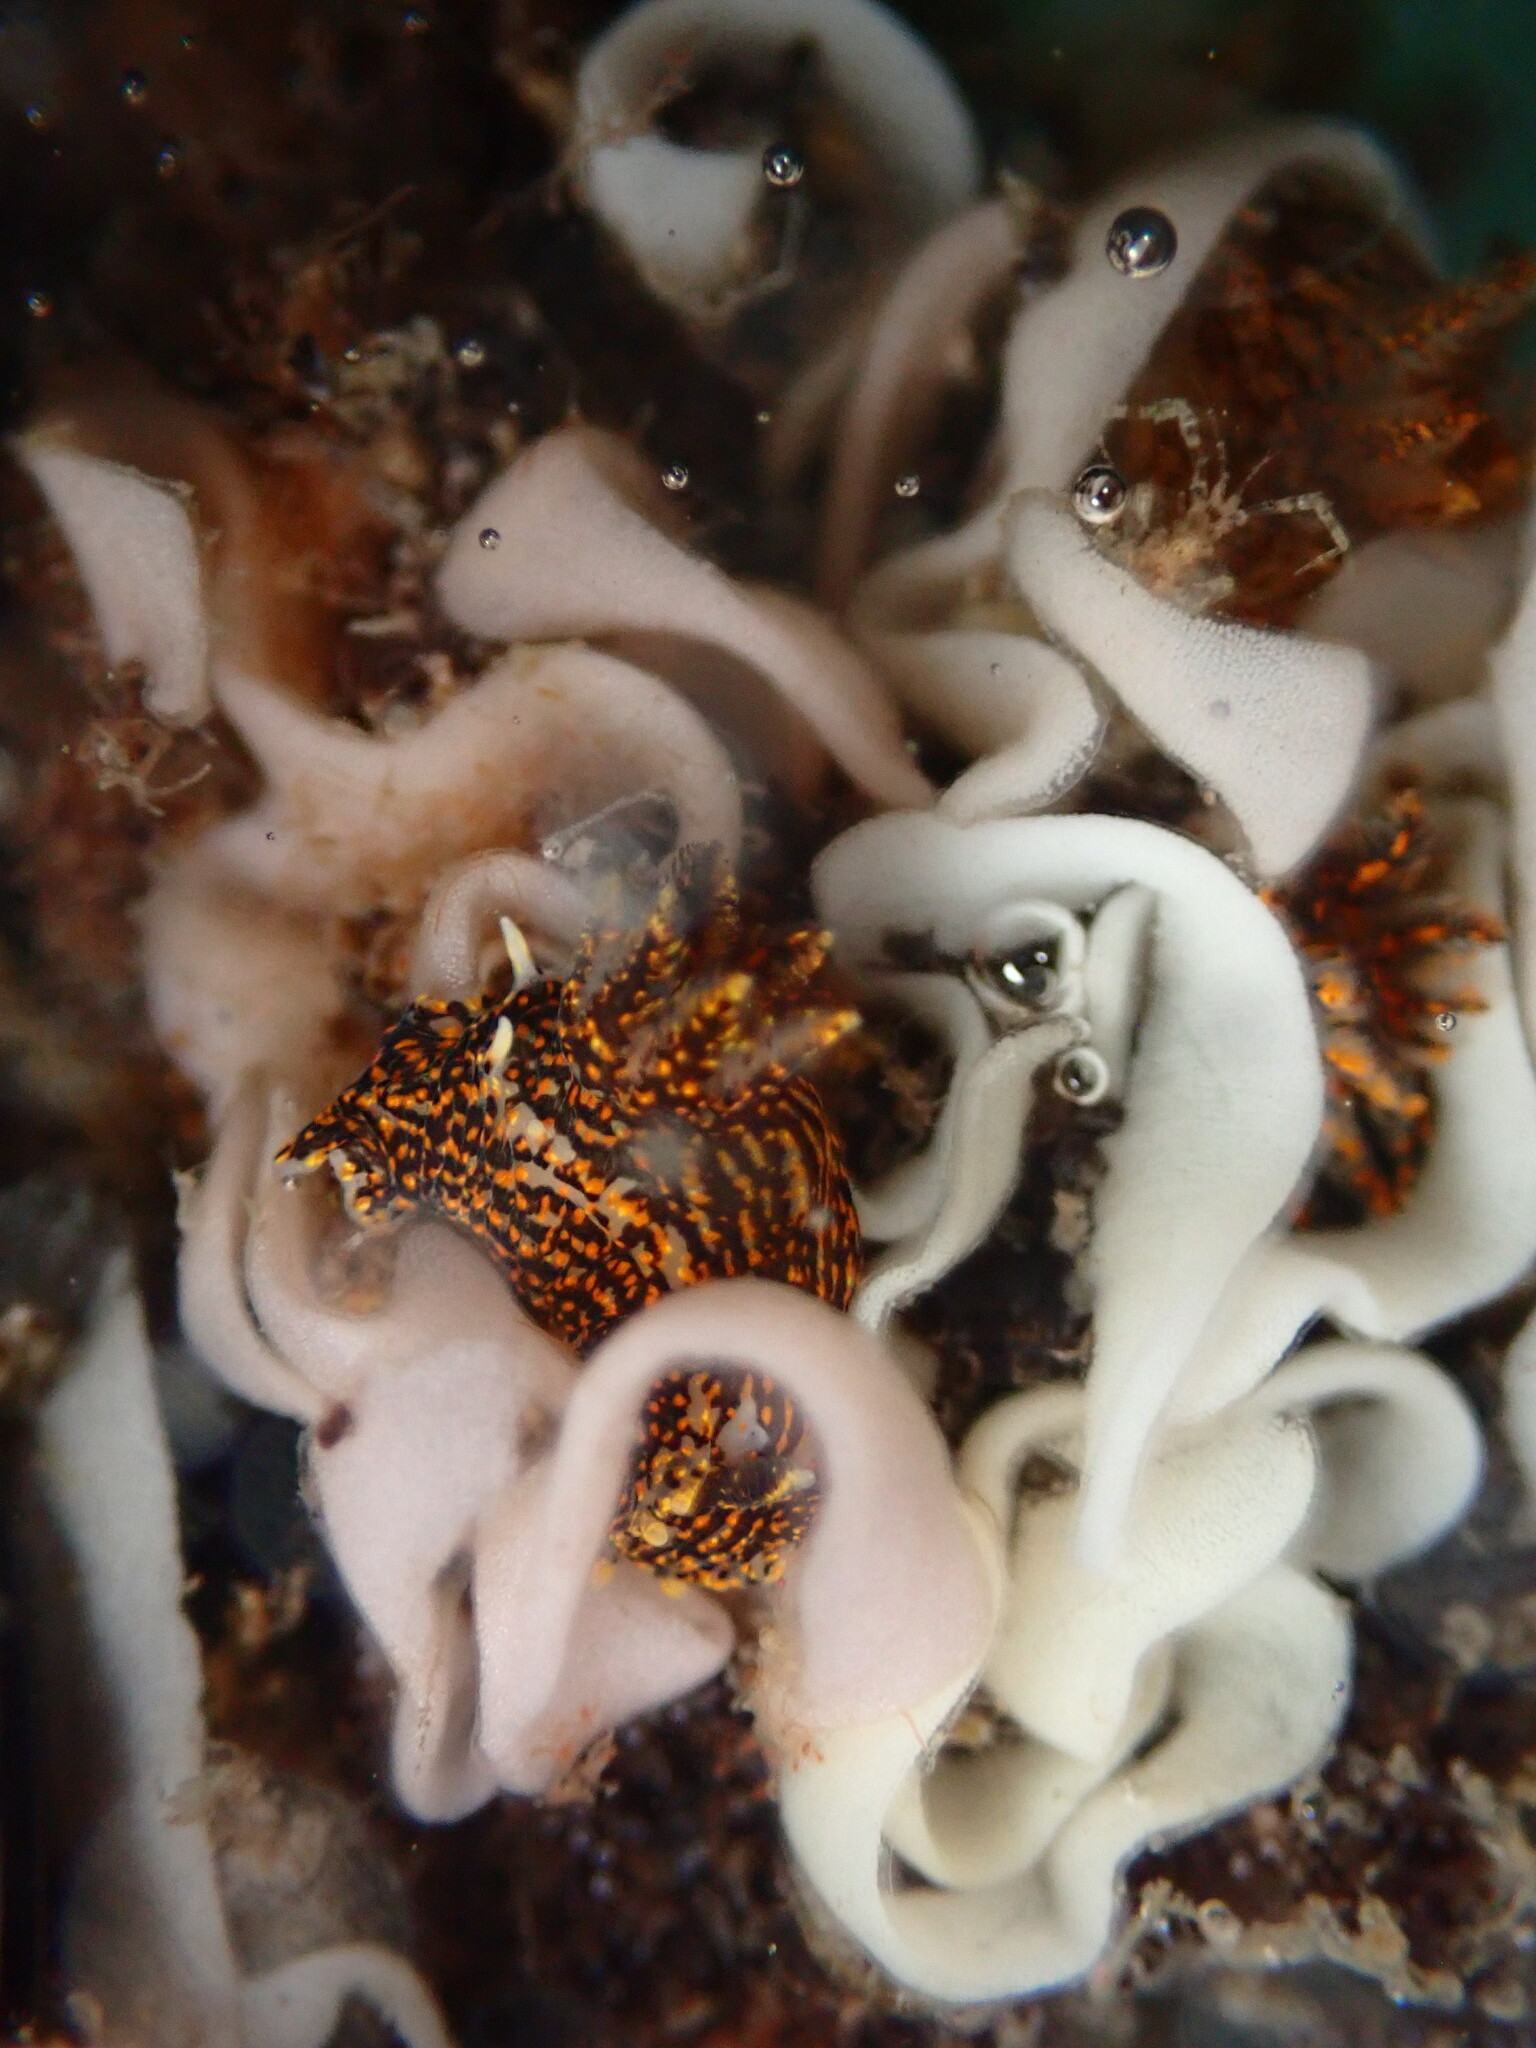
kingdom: Animalia
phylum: Mollusca
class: Gastropoda
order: Nudibranchia
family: Polyceridae
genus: Polycera
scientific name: Polycera atra
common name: Orange-spike polycera
